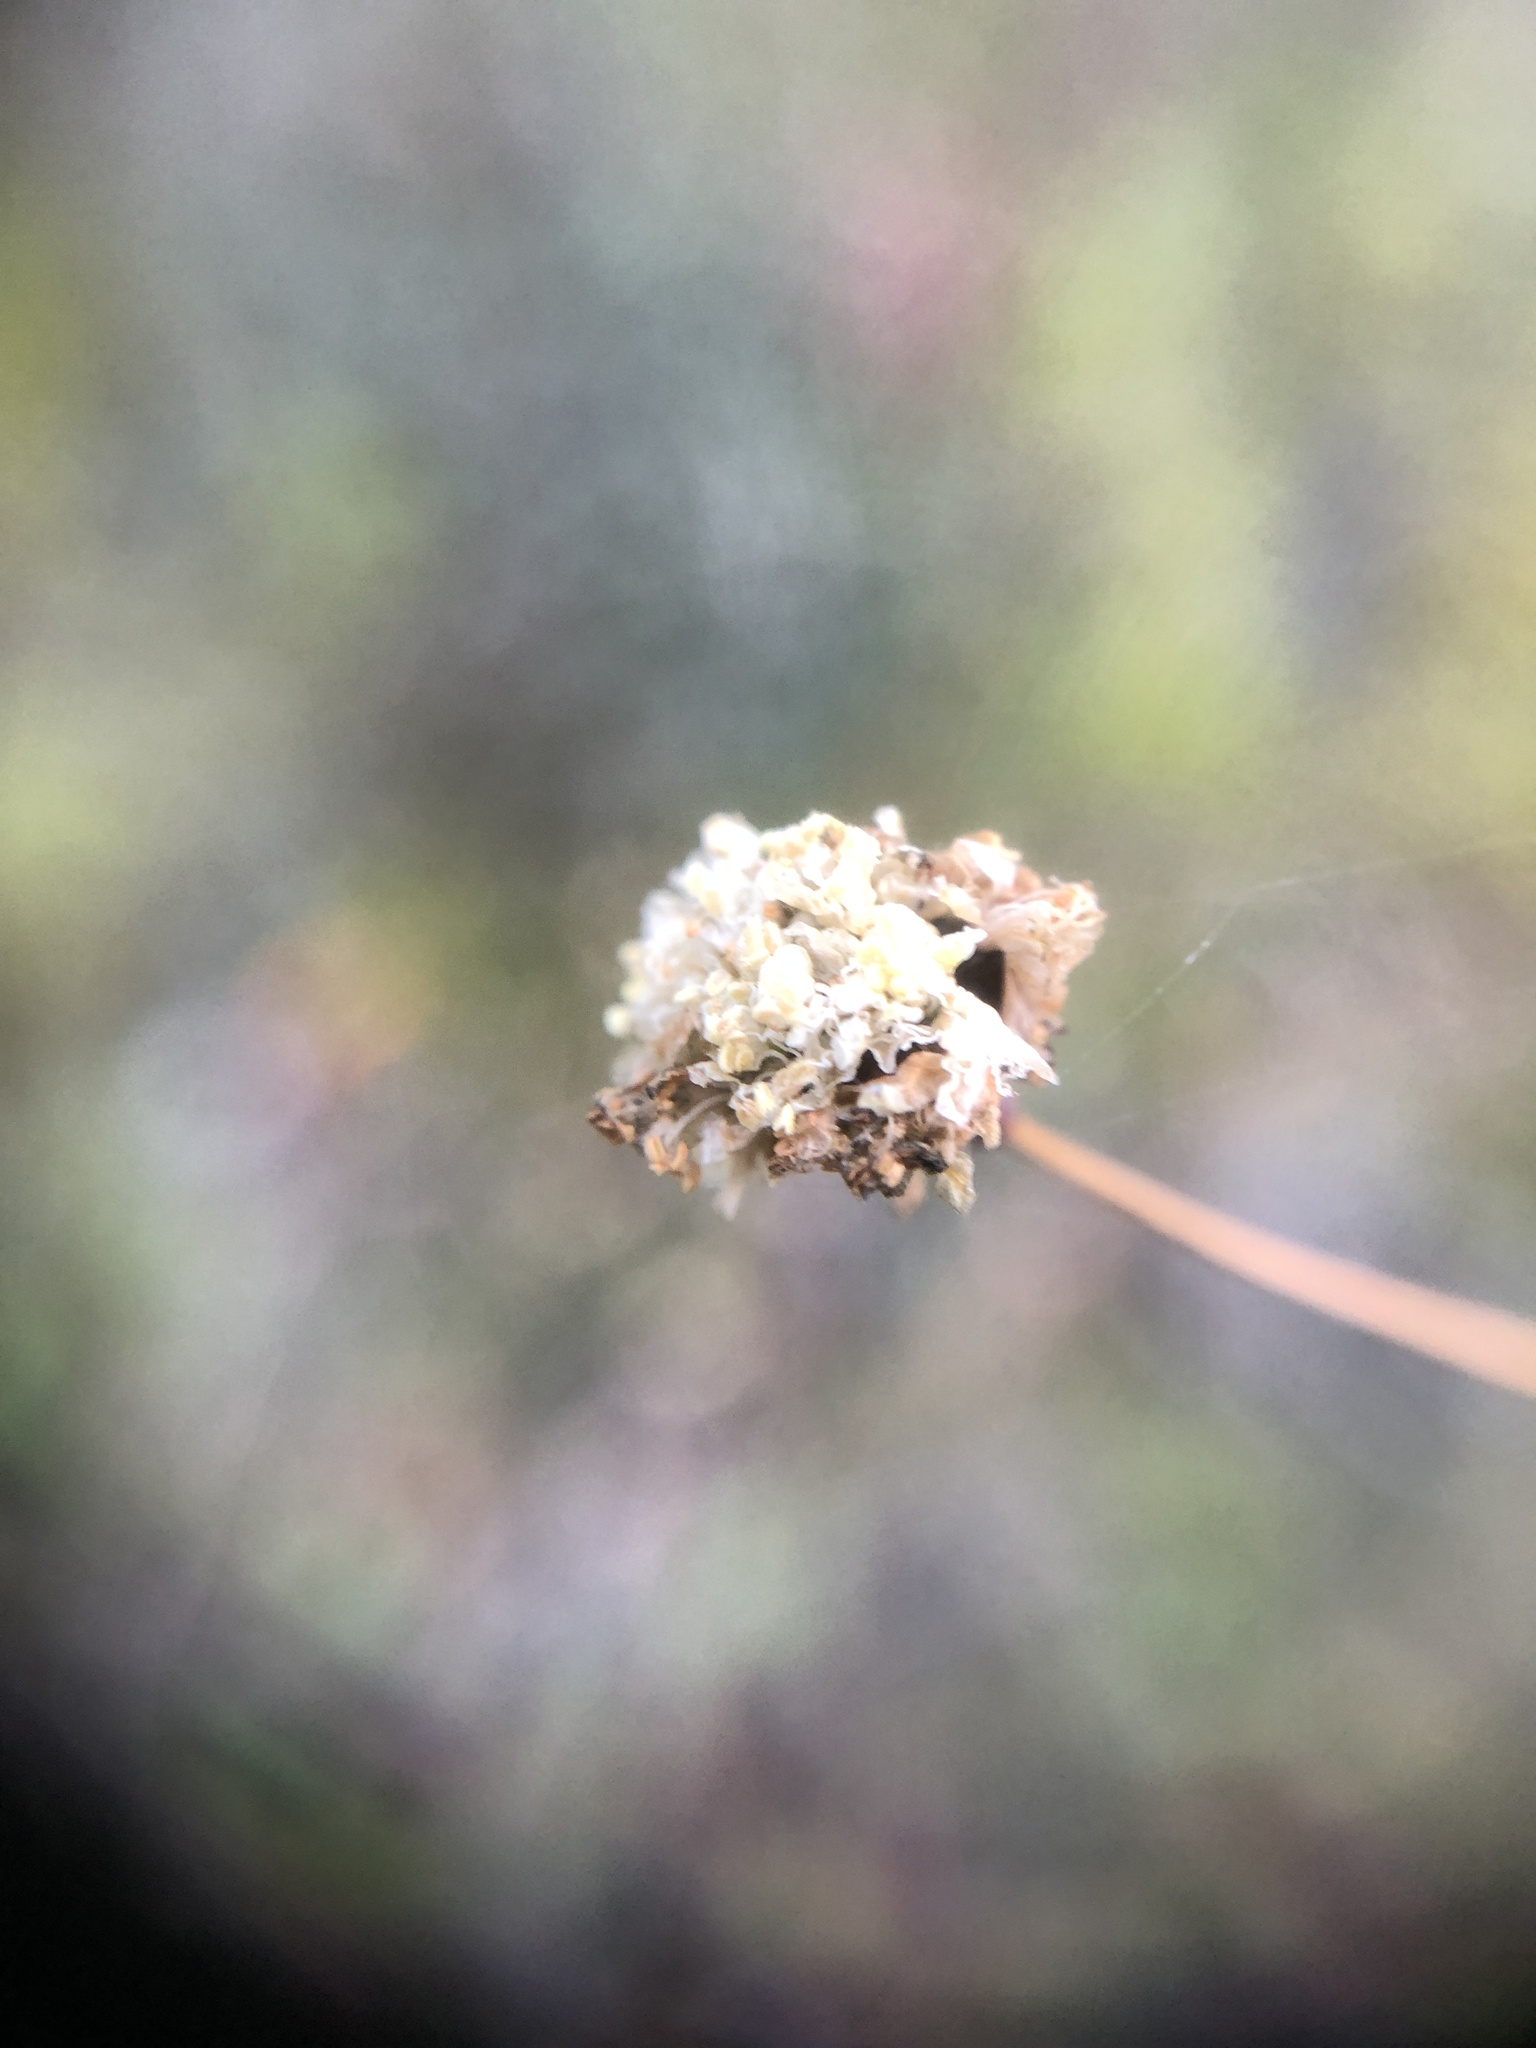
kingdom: Plantae
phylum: Tracheophyta
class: Magnoliopsida
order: Caryophyllales
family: Polygonaceae
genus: Eriogonum
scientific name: Eriogonum nudum
